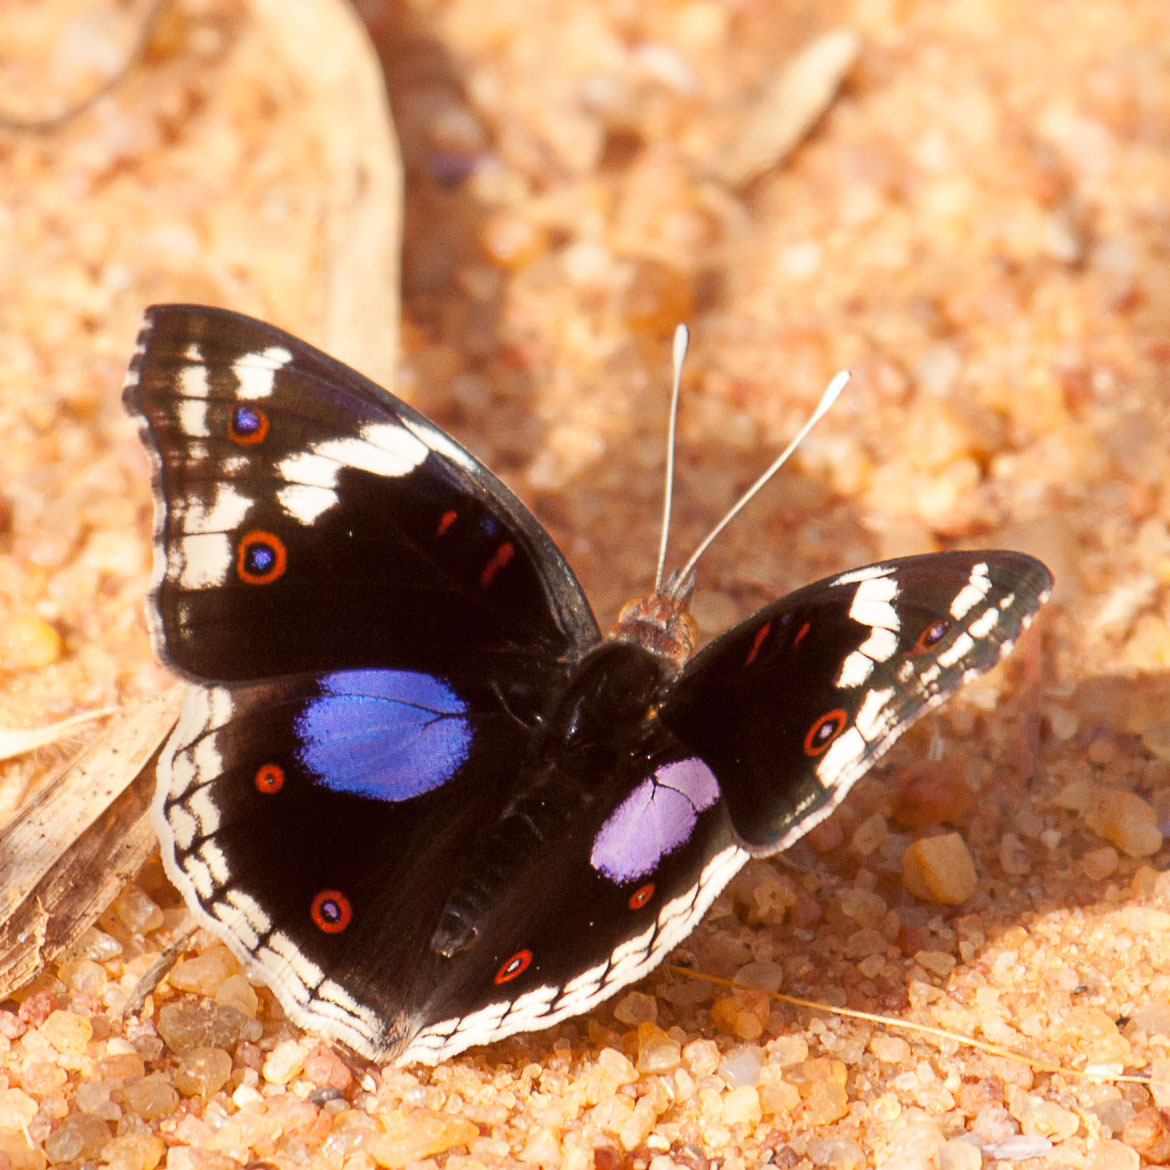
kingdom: Animalia
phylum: Arthropoda
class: Insecta
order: Lepidoptera
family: Nymphalidae
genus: Junonia
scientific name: Junonia oenone
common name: Dark blue pansy
